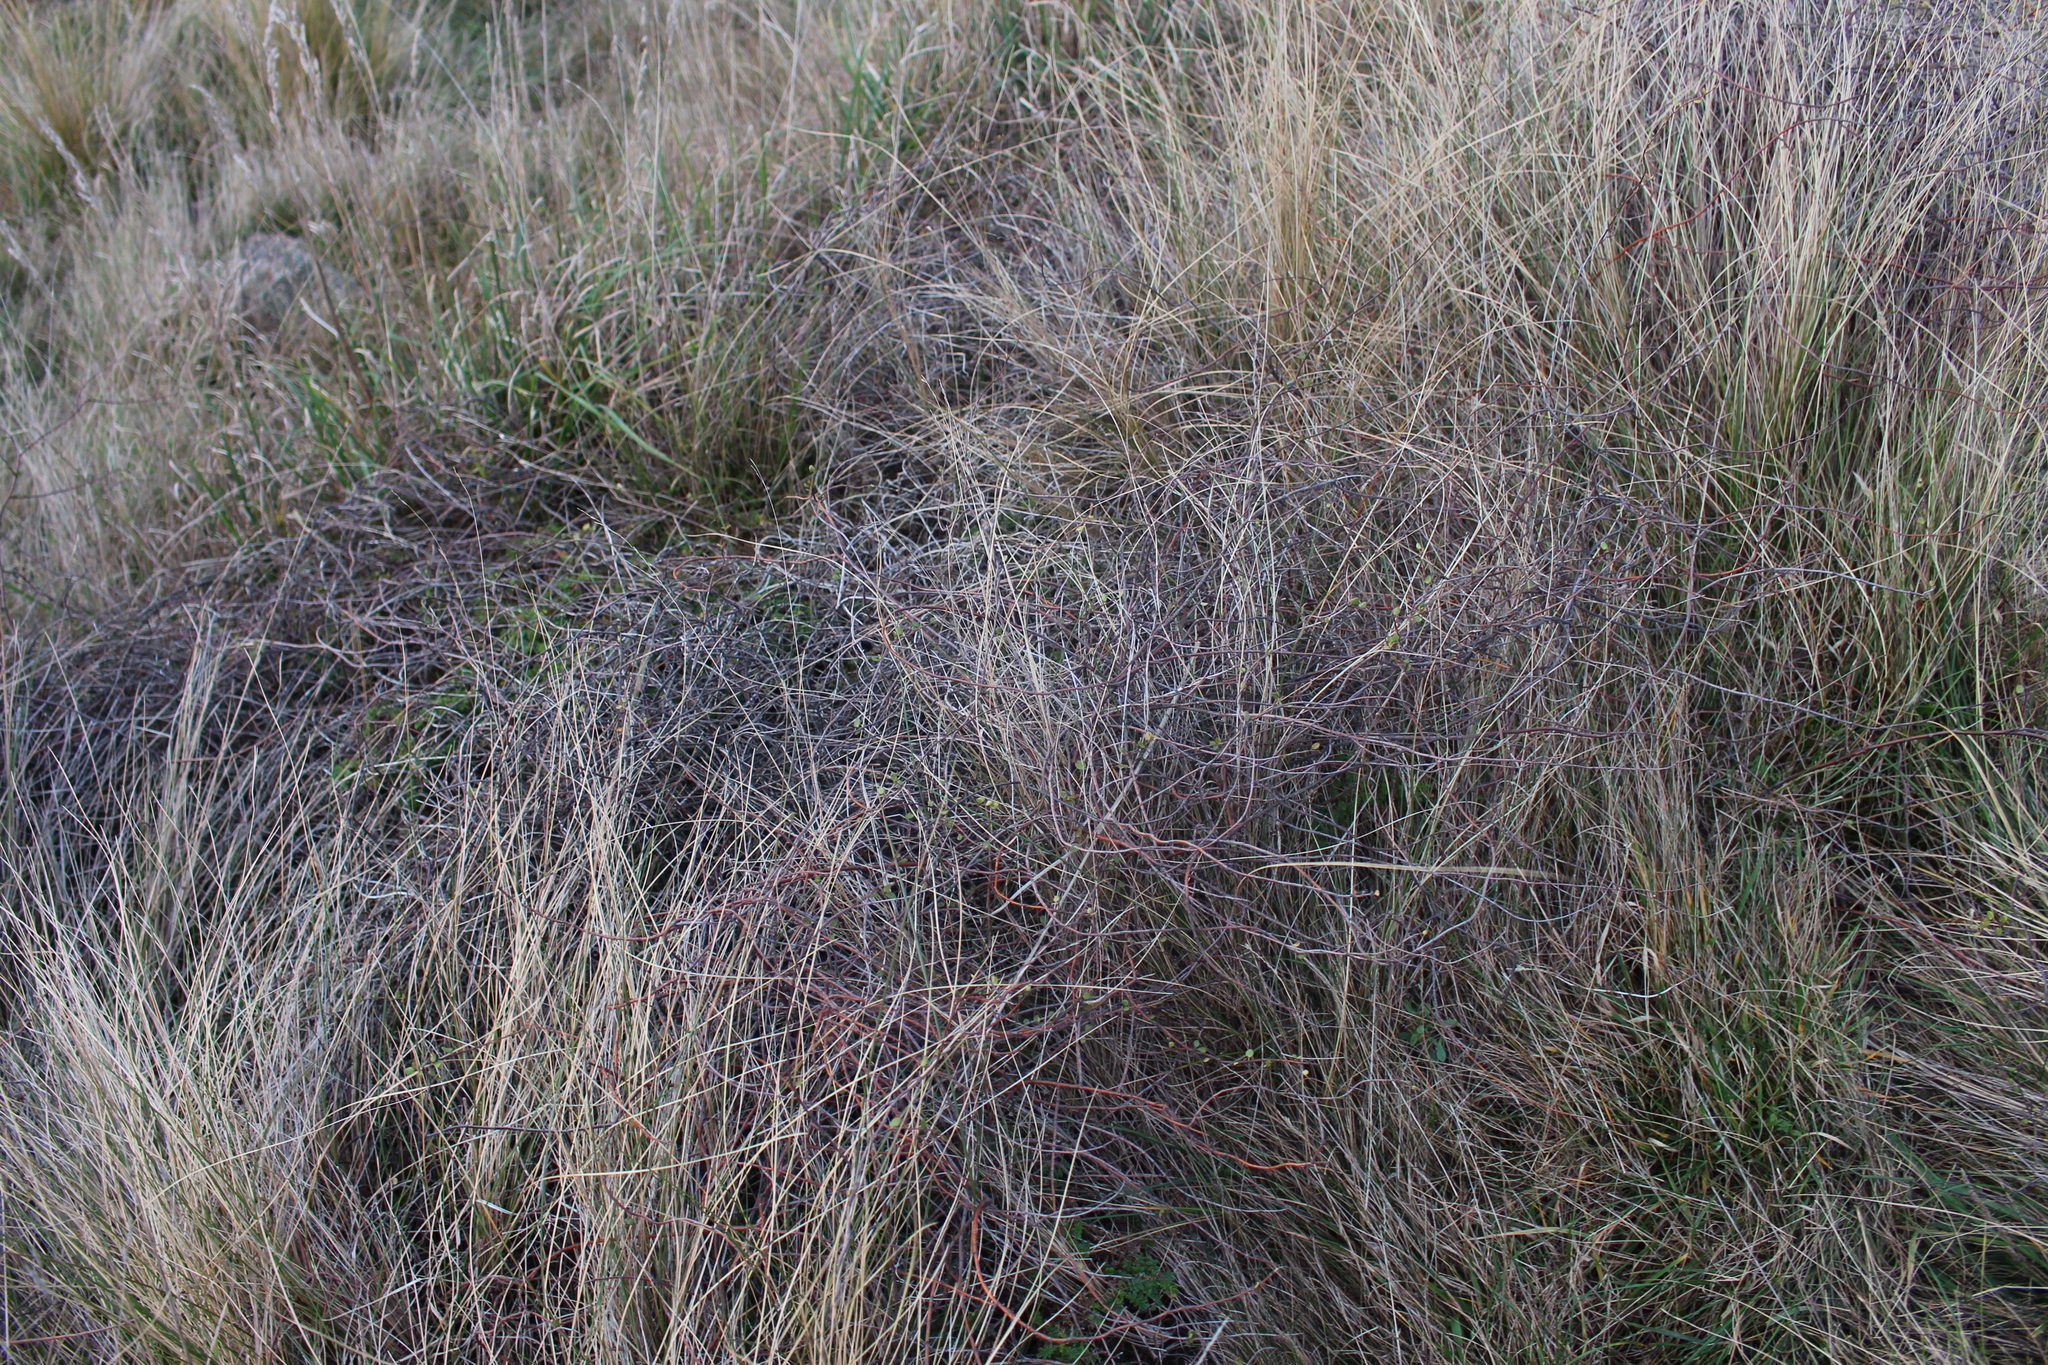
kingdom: Plantae
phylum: Tracheophyta
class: Magnoliopsida
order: Caryophyllales
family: Polygonaceae
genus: Muehlenbeckia
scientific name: Muehlenbeckia complexa
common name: Wireplant
